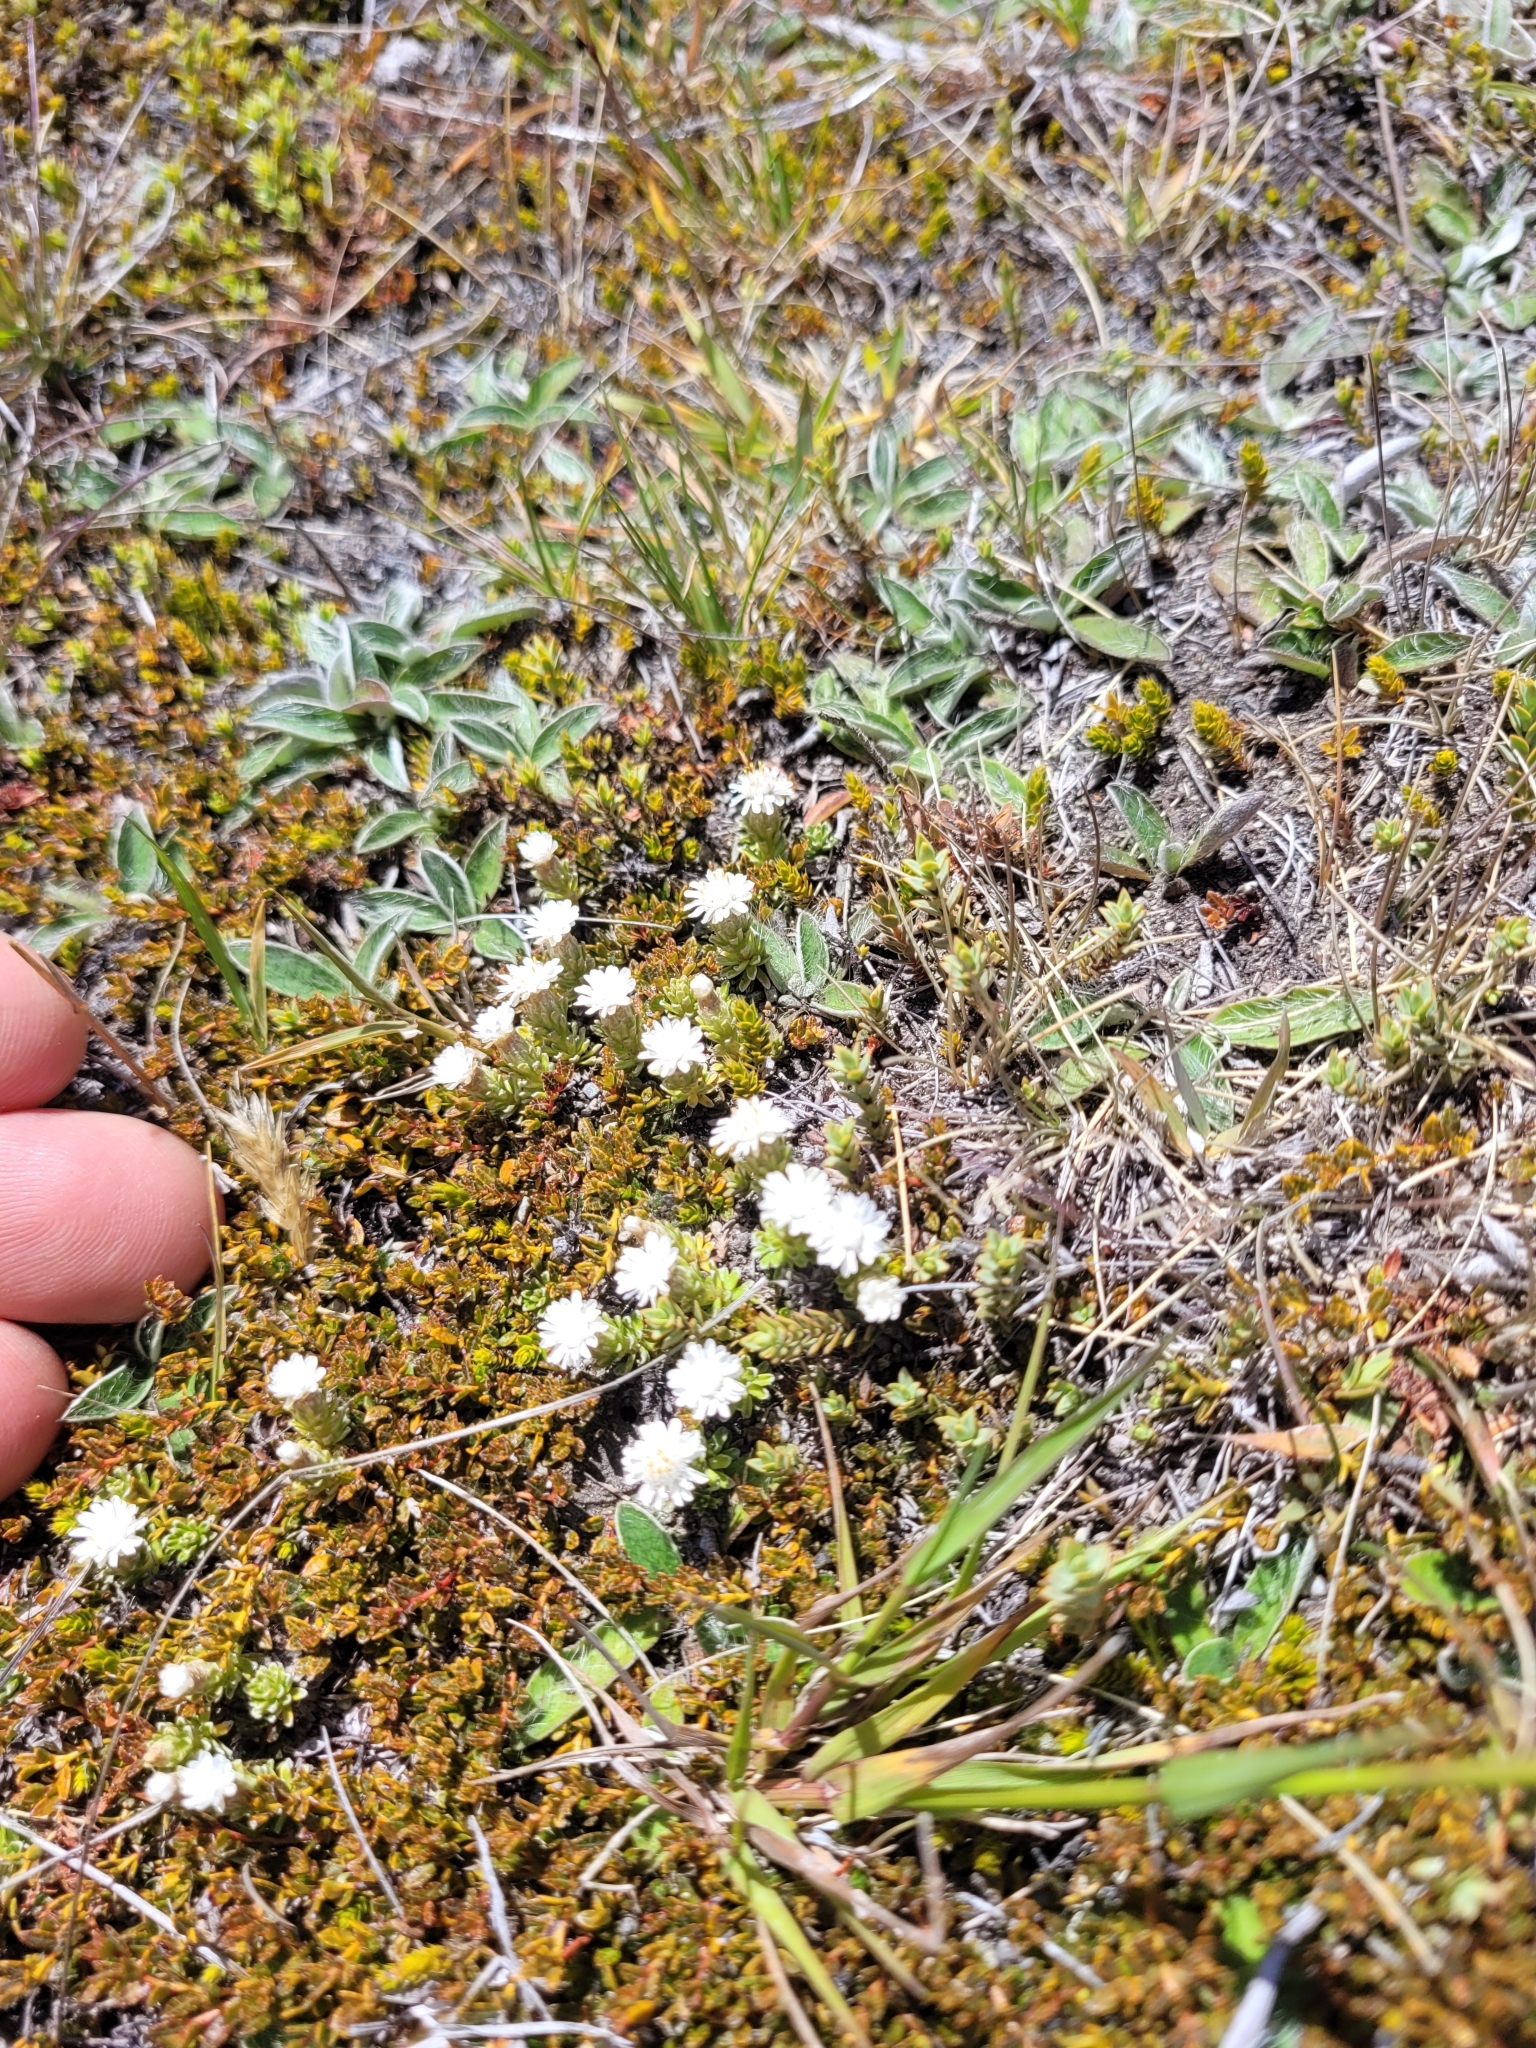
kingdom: Plantae
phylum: Tracheophyta
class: Magnoliopsida
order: Asterales
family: Asteraceae
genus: Raoulia
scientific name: Raoulia subsericea
